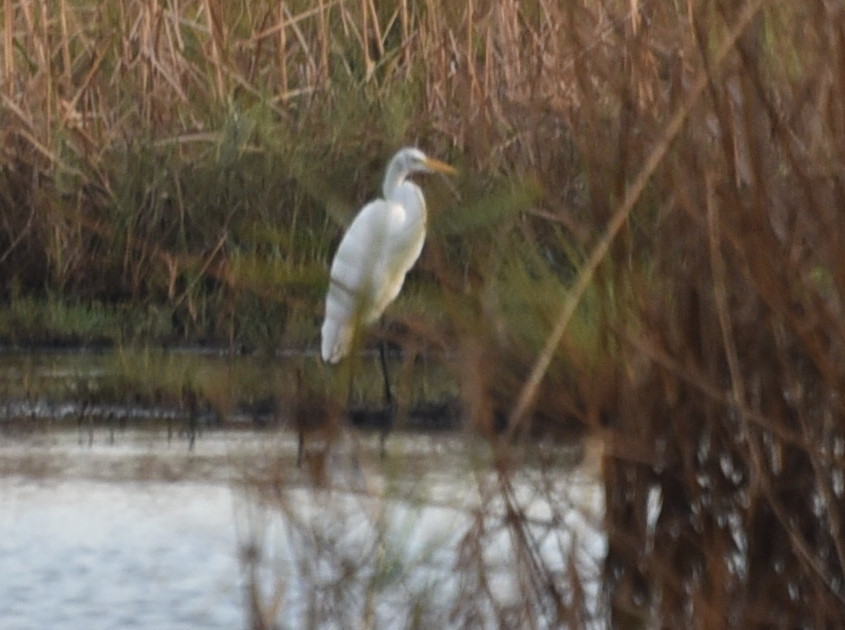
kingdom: Animalia
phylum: Chordata
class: Aves
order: Pelecaniformes
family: Ardeidae
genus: Ardea
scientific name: Ardea alba
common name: Great egret
